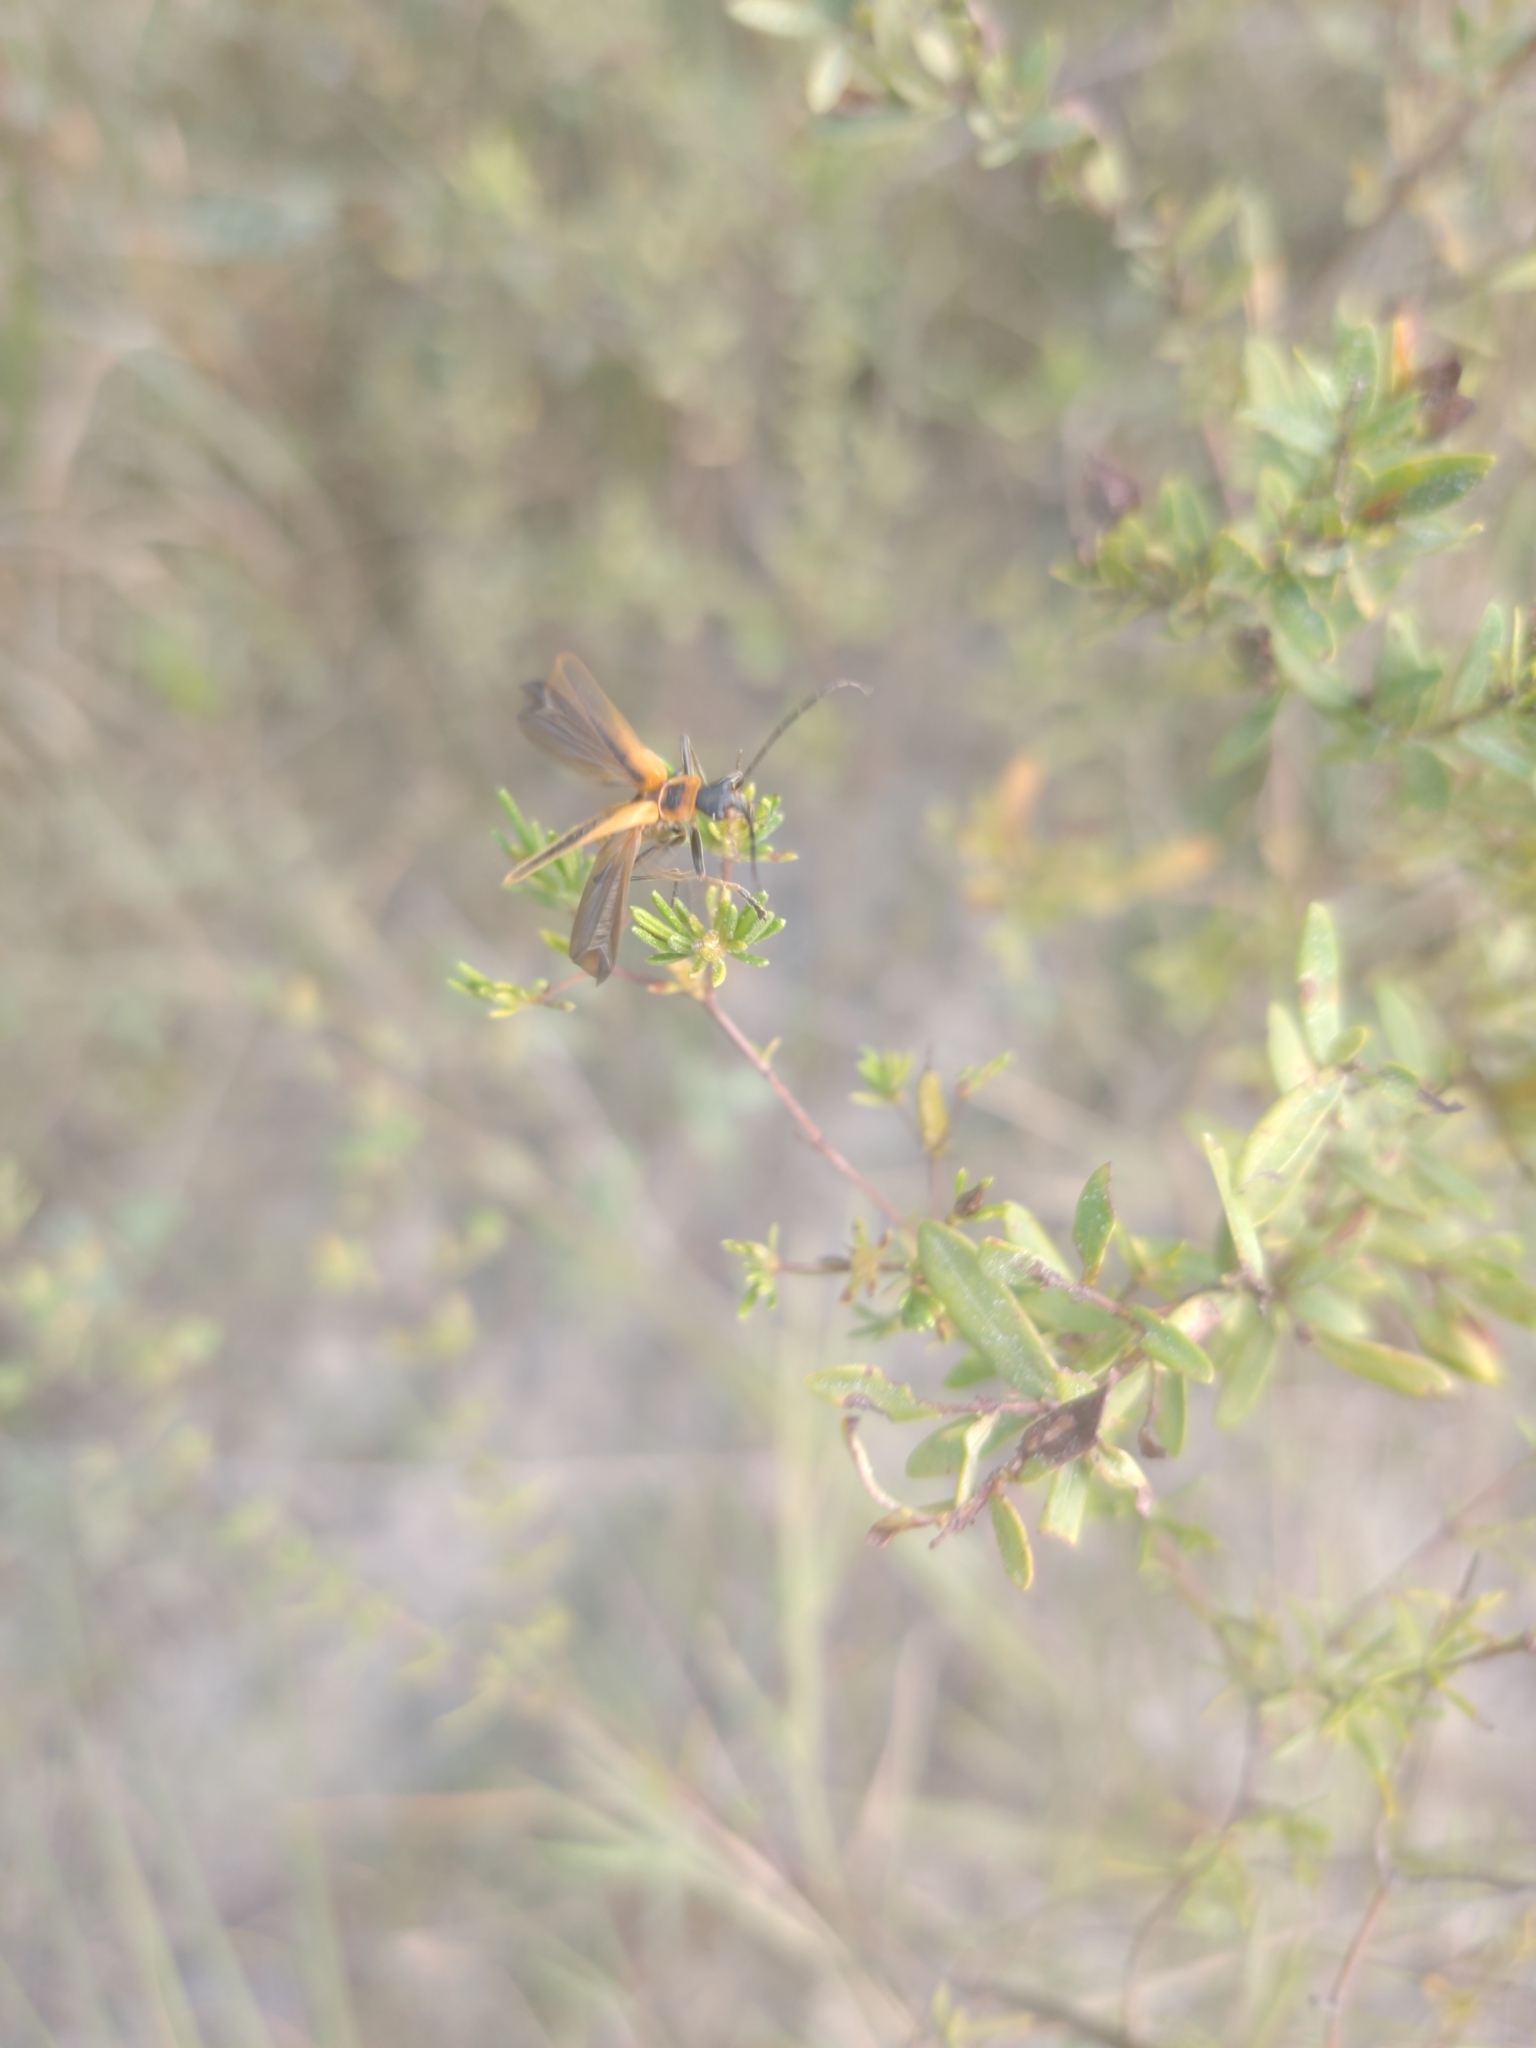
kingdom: Animalia
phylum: Arthropoda
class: Insecta
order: Coleoptera
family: Cantharidae
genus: Chauliognathus
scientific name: Chauliognathus pensylvanicus
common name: Goldenrod soldier beetle
